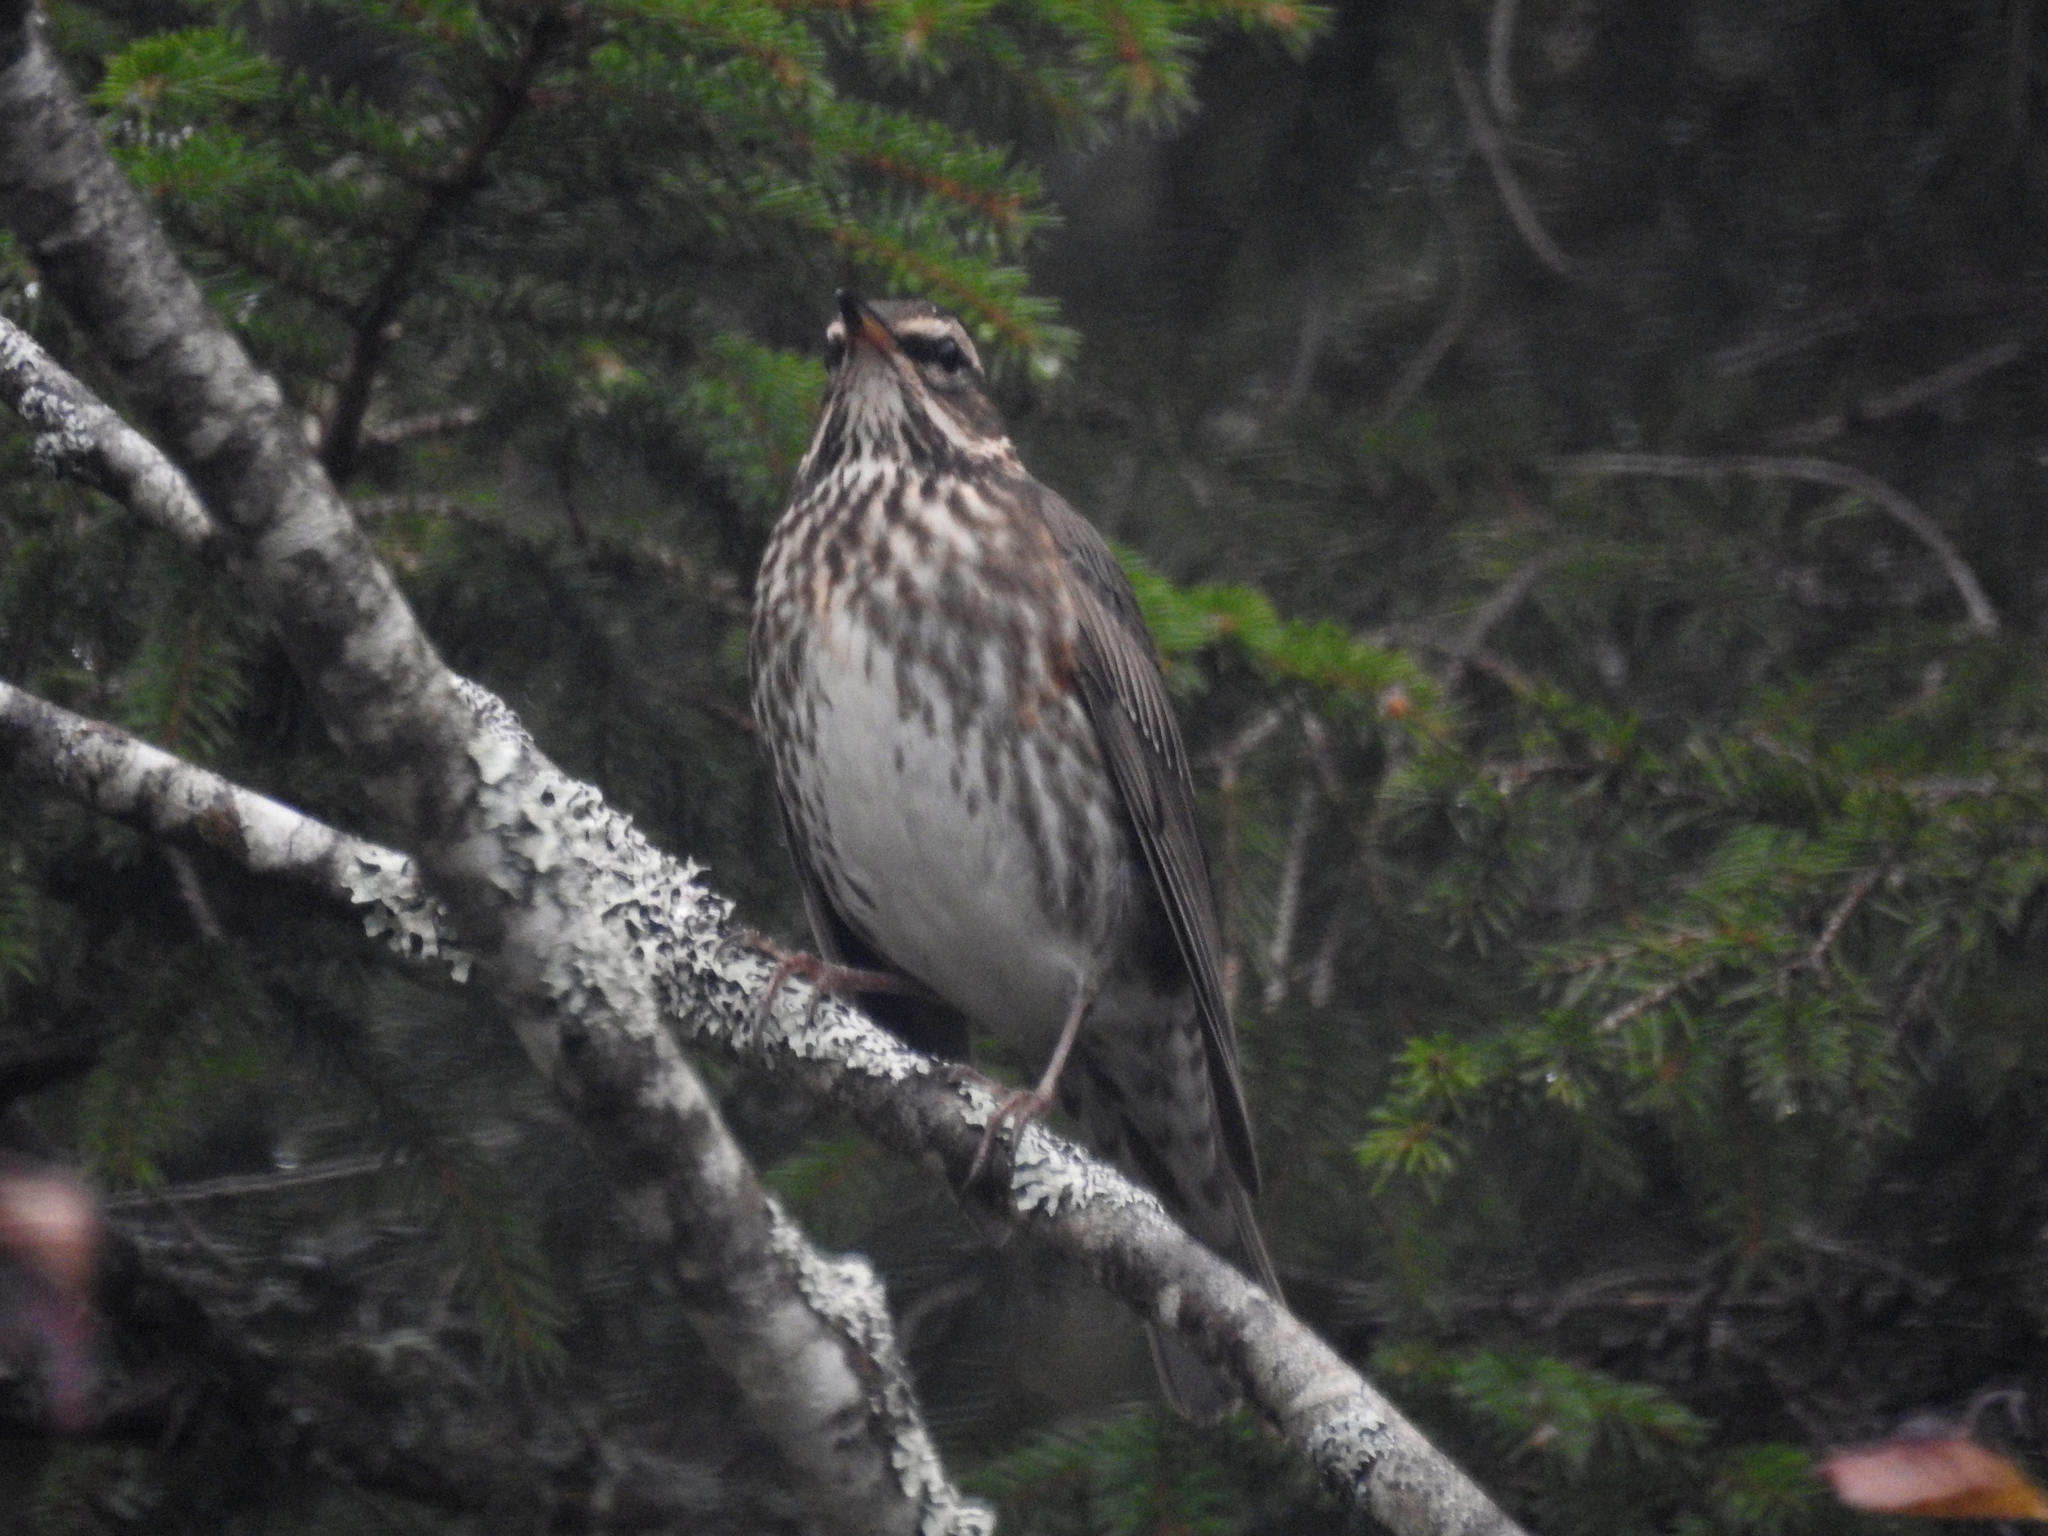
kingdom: Animalia
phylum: Chordata
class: Aves
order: Passeriformes
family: Turdidae
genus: Turdus
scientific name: Turdus iliacus
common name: Redwing
